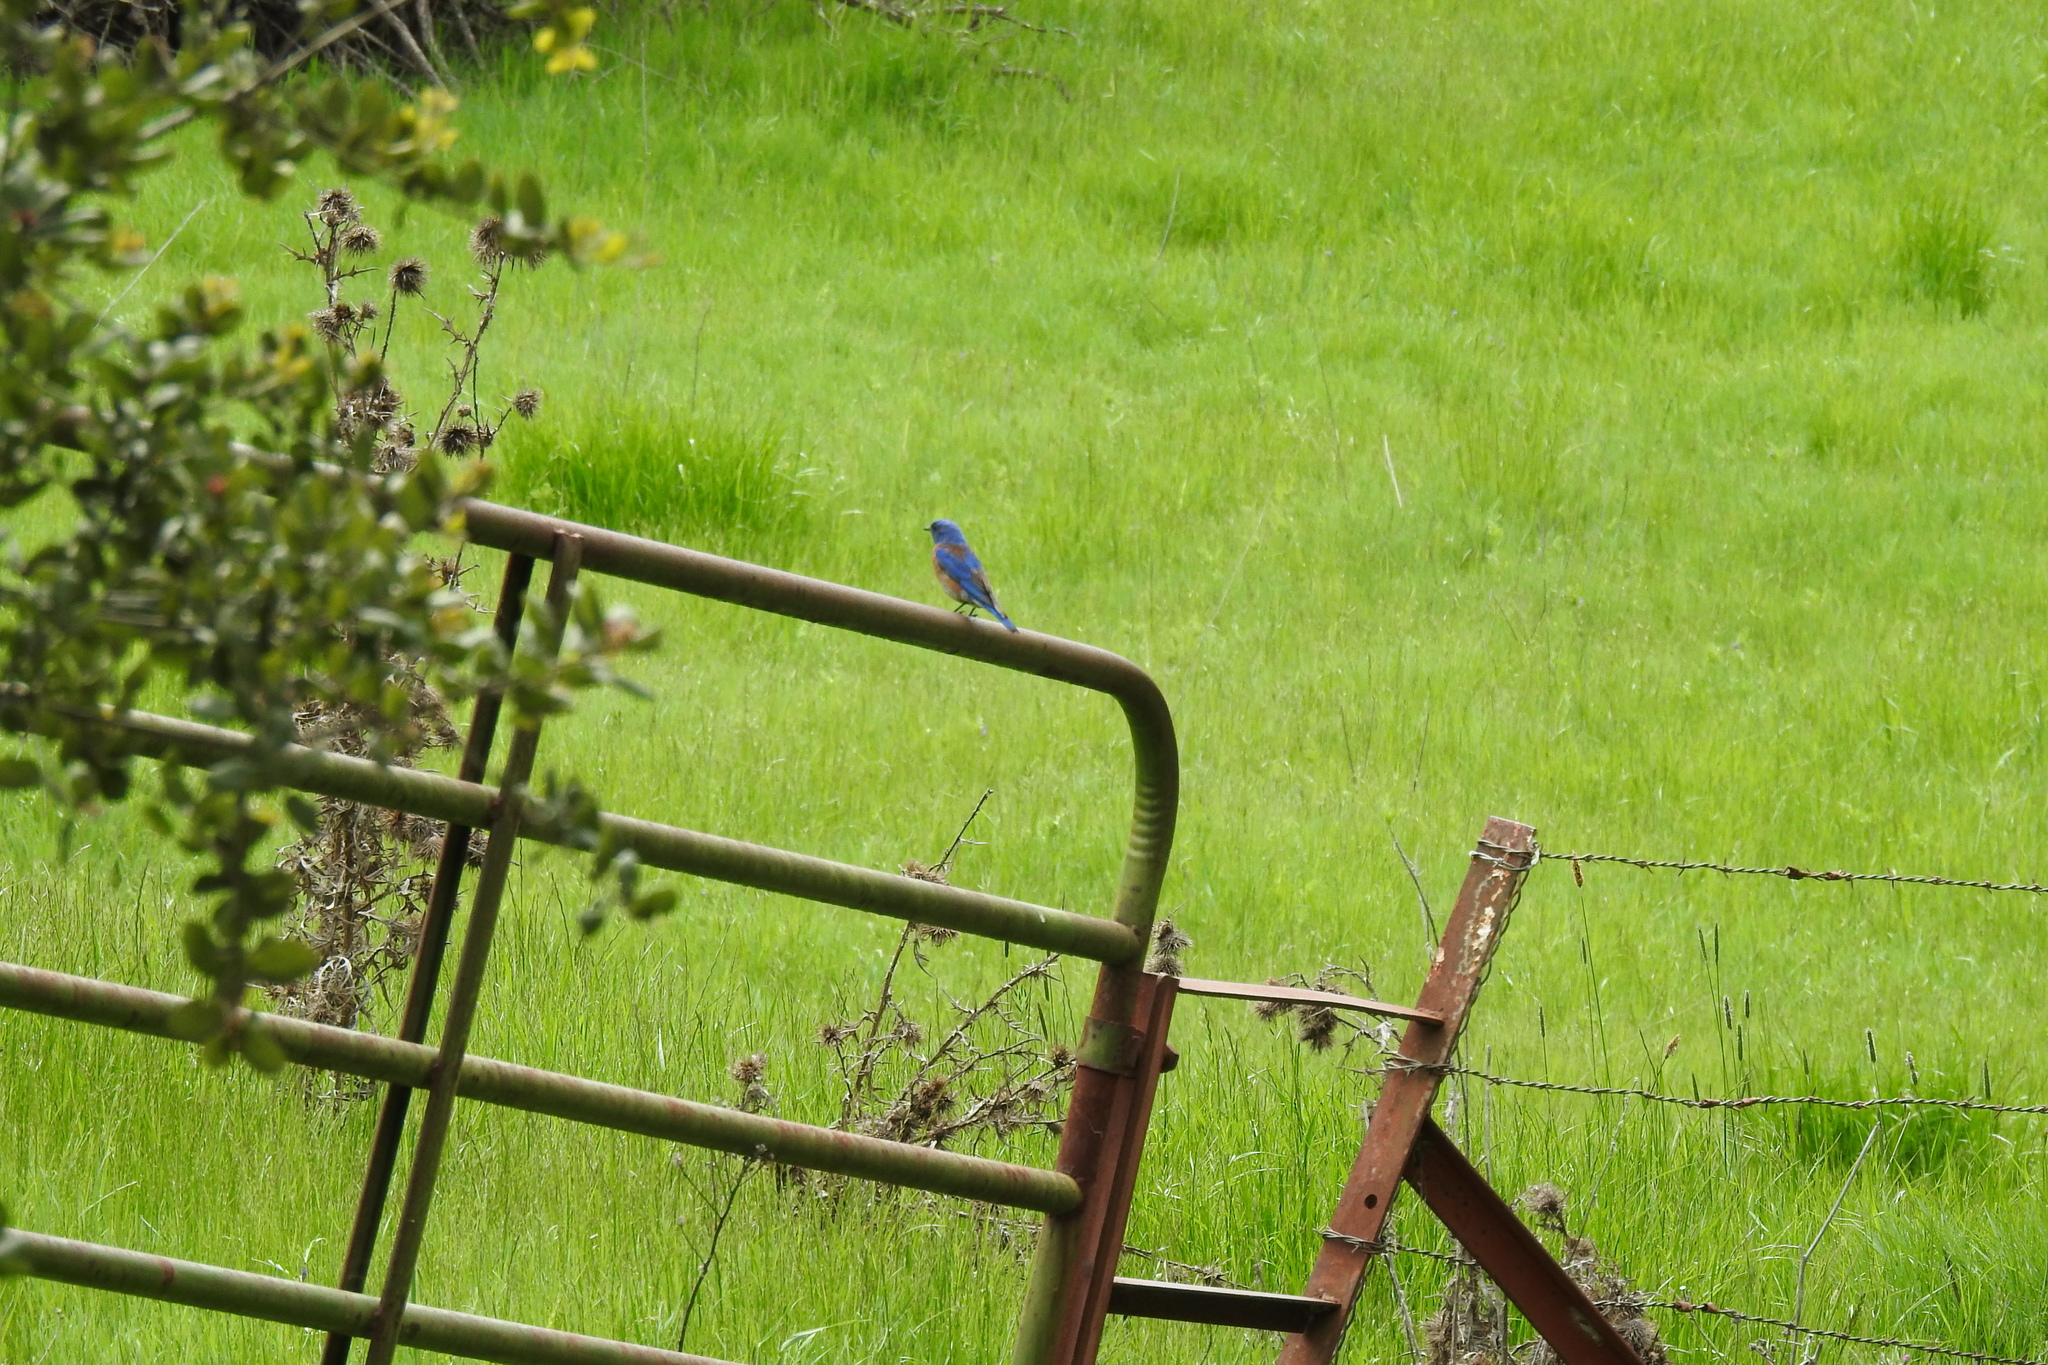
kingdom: Animalia
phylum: Chordata
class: Aves
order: Passeriformes
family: Turdidae
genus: Sialia
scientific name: Sialia mexicana
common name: Western bluebird
